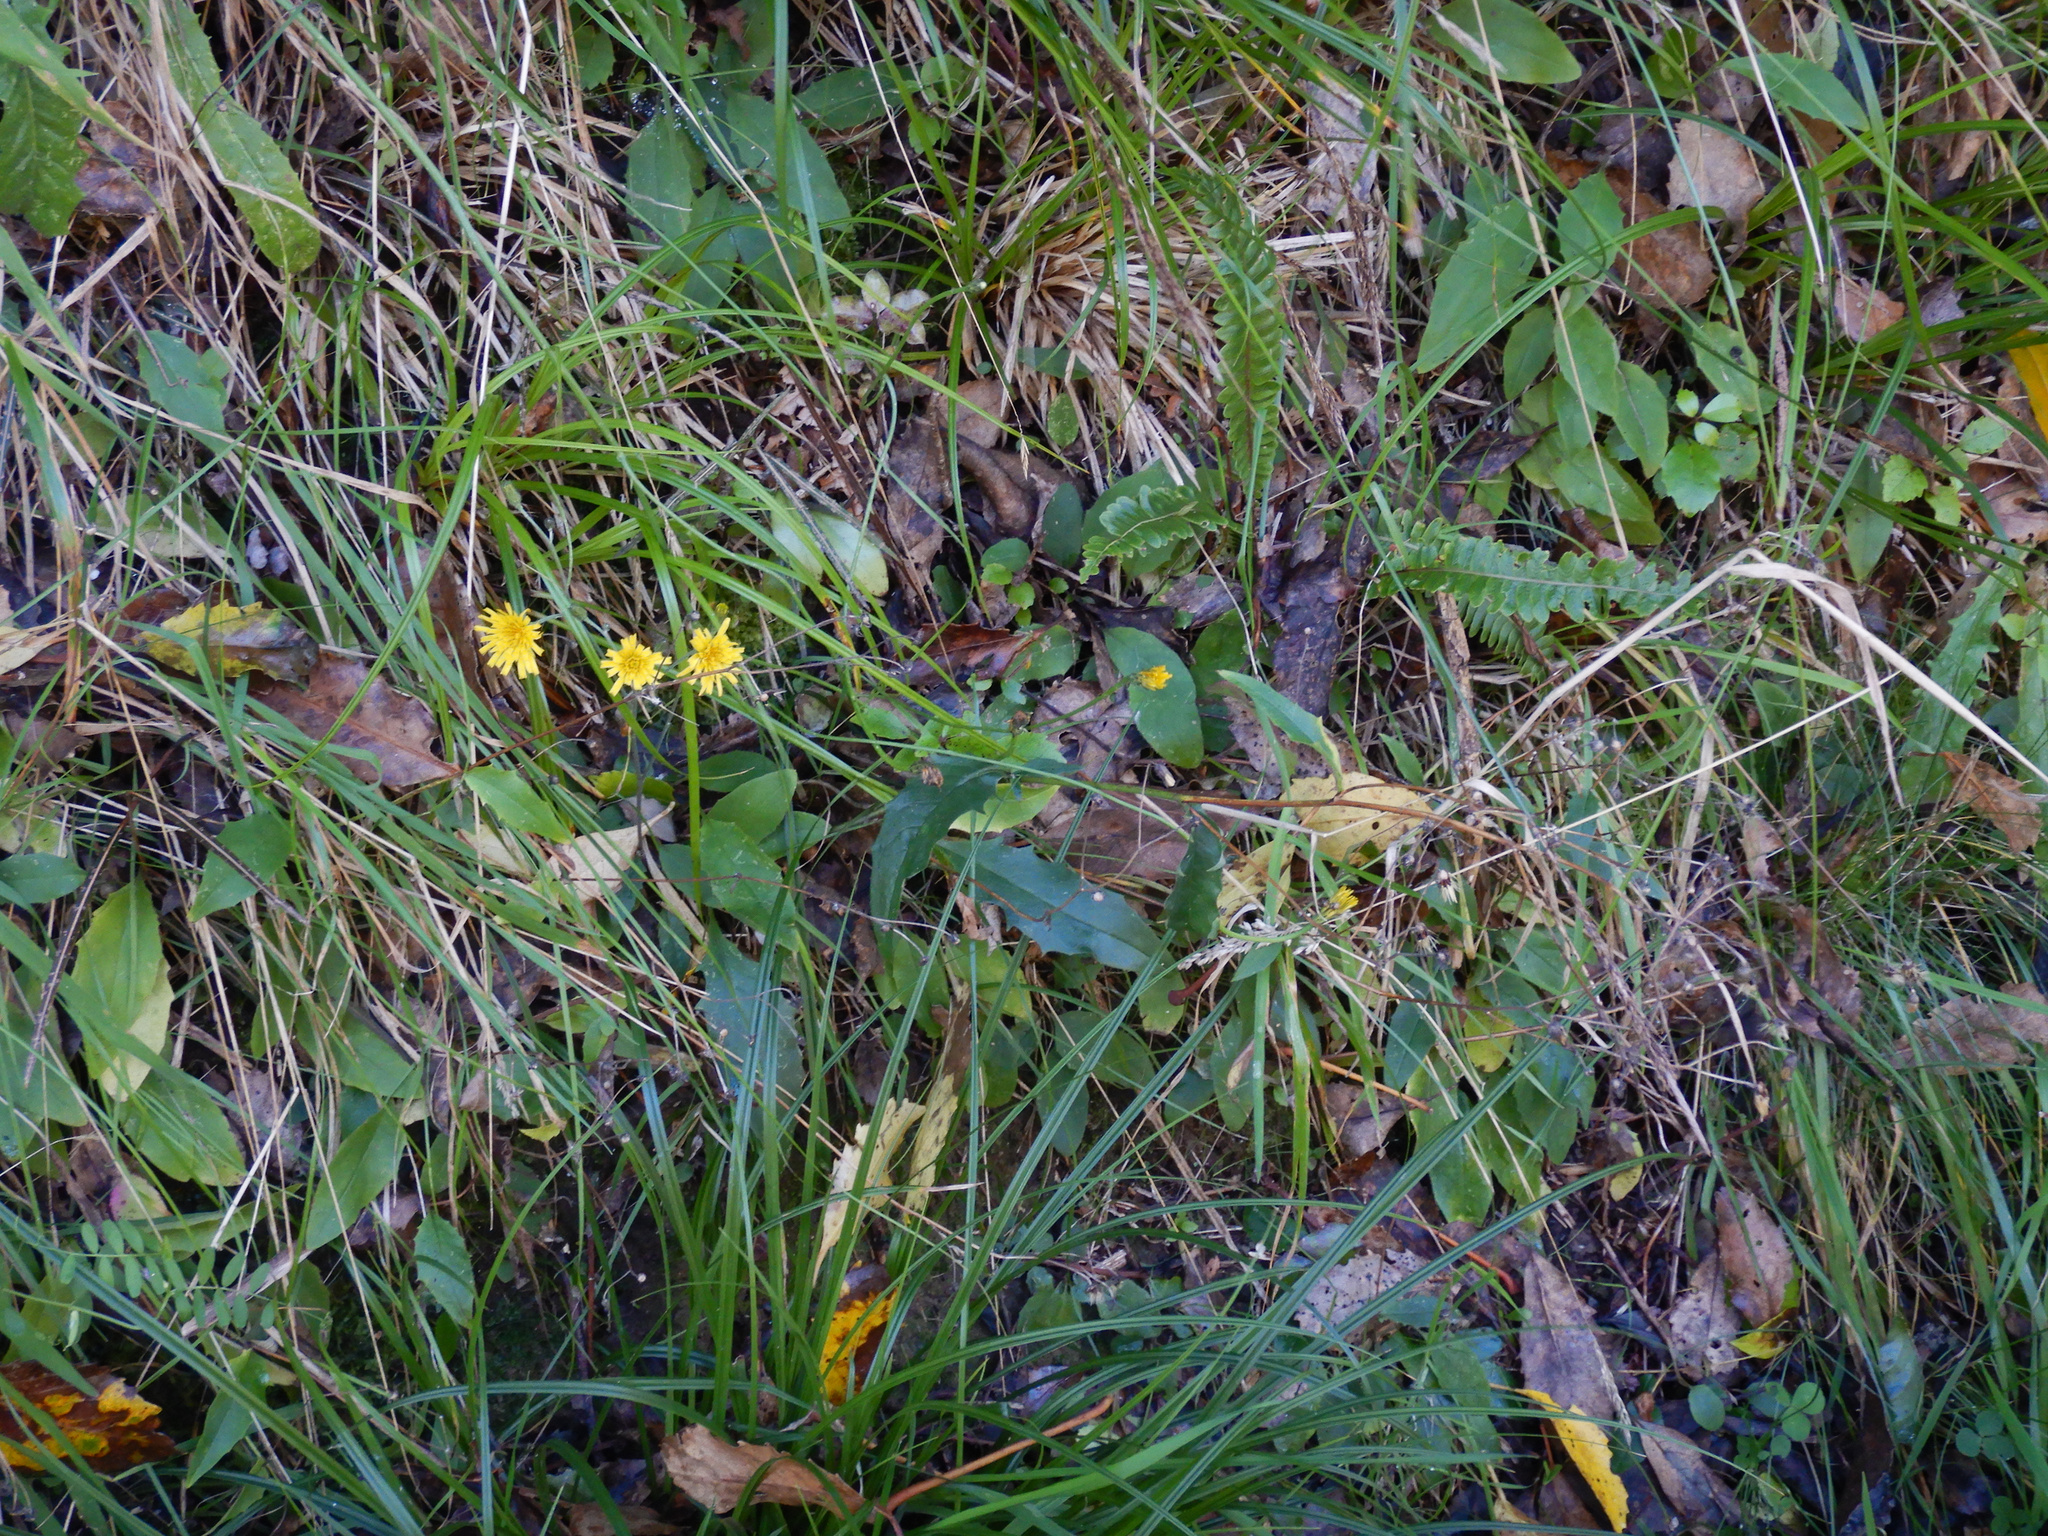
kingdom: Plantae
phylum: Tracheophyta
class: Magnoliopsida
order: Asterales
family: Asteraceae
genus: Hieracium
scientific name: Hieracium lepidulum
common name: Irregular-toothed hawkweed
